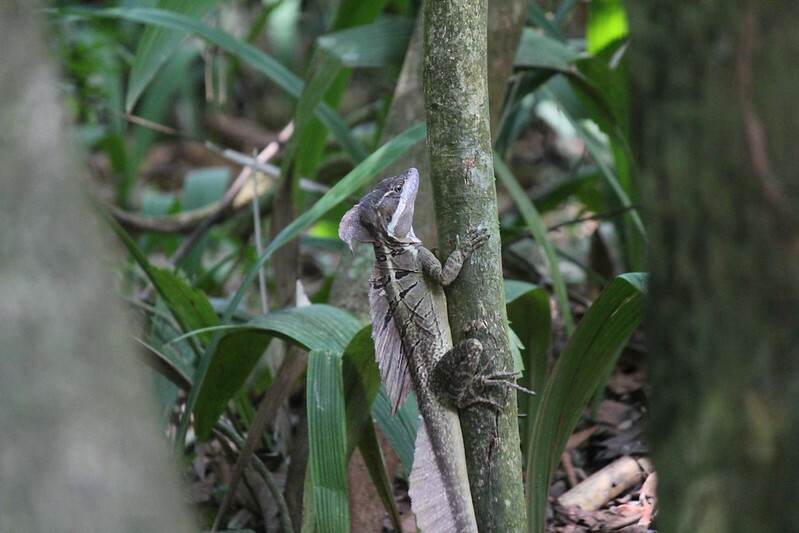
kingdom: Animalia
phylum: Chordata
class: Squamata
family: Corytophanidae
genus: Basiliscus
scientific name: Basiliscus basiliscus
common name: Common basilisk
